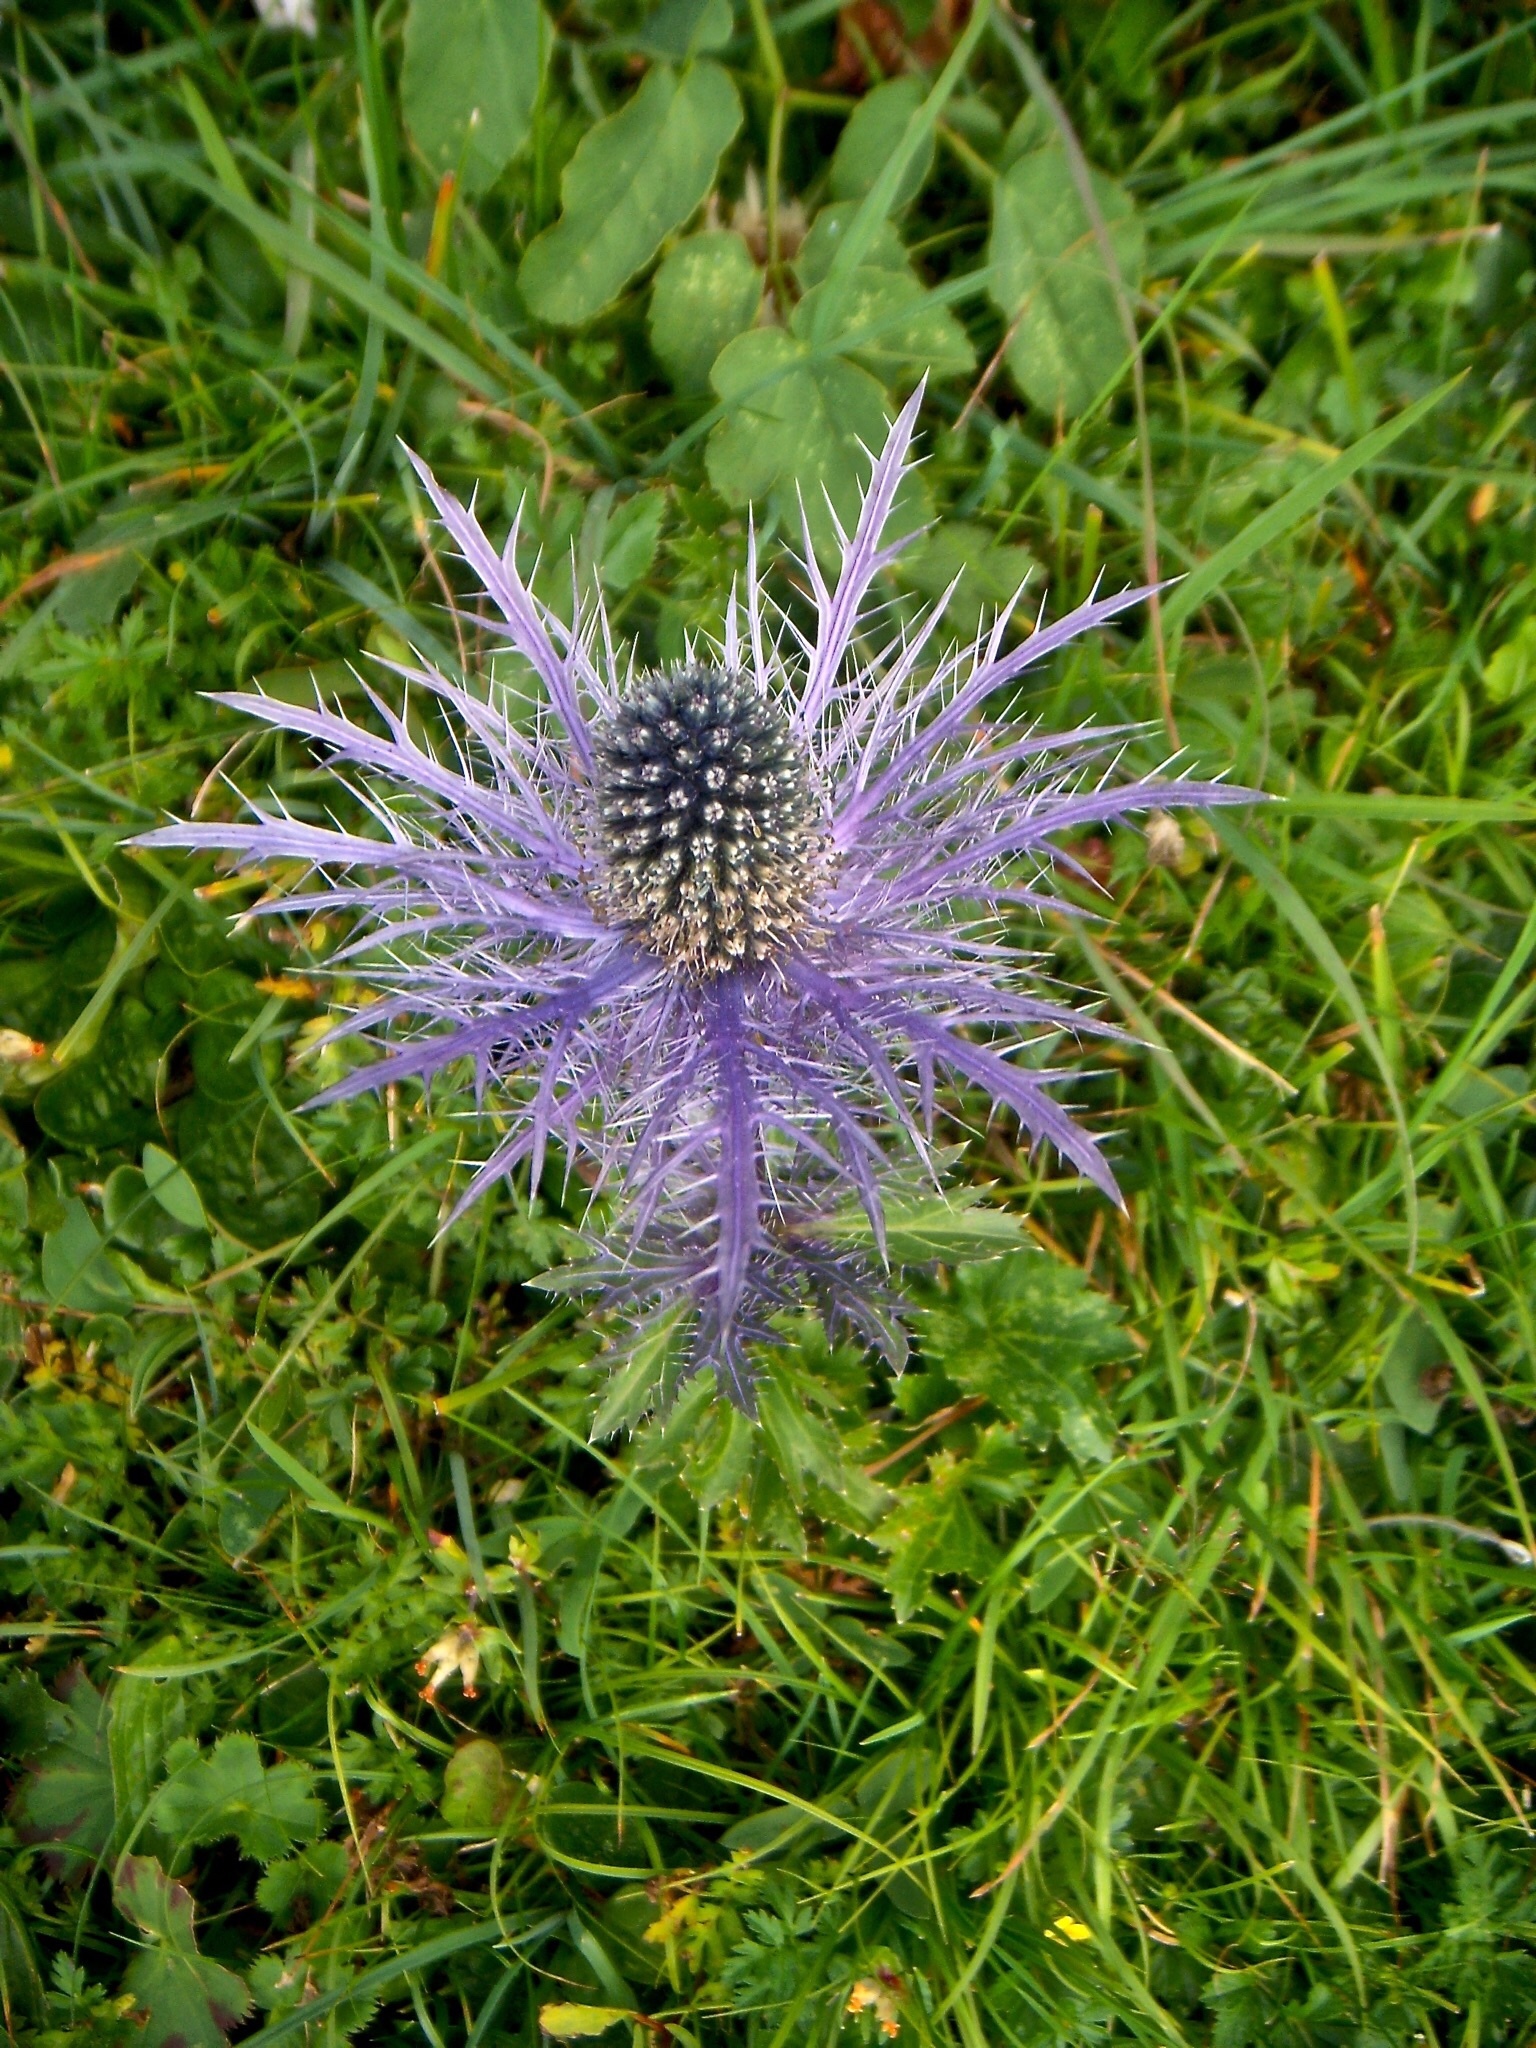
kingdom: Plantae
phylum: Tracheophyta
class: Magnoliopsida
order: Apiales
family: Apiaceae
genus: Eryngium
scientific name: Eryngium alpinum
